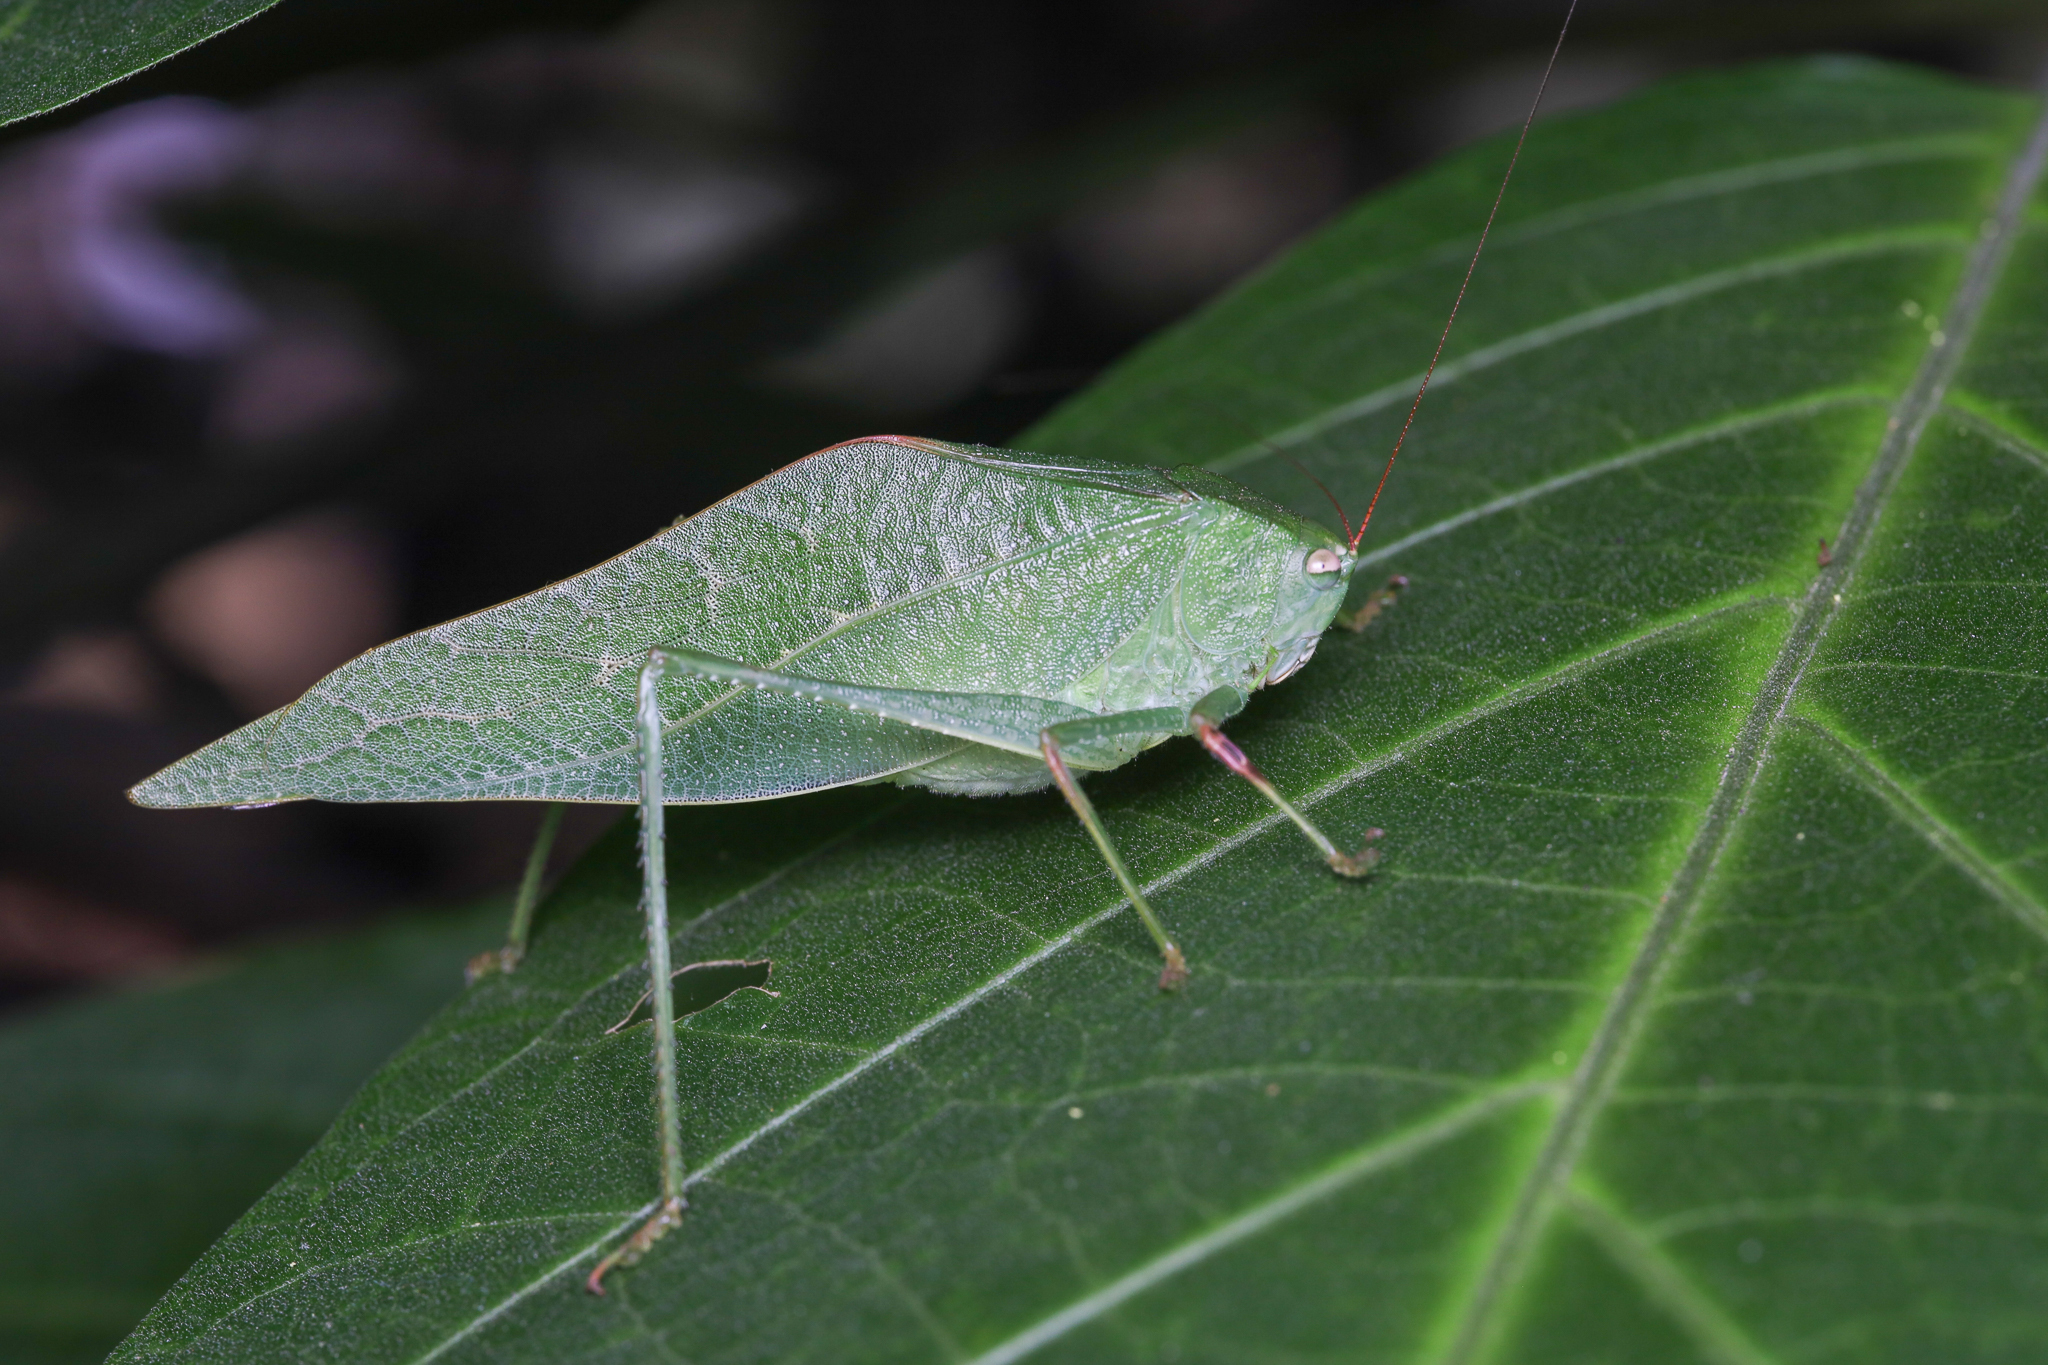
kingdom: Animalia
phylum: Arthropoda
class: Insecta
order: Orthoptera
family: Tettigoniidae
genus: Syntechna
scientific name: Syntechna tarasca
